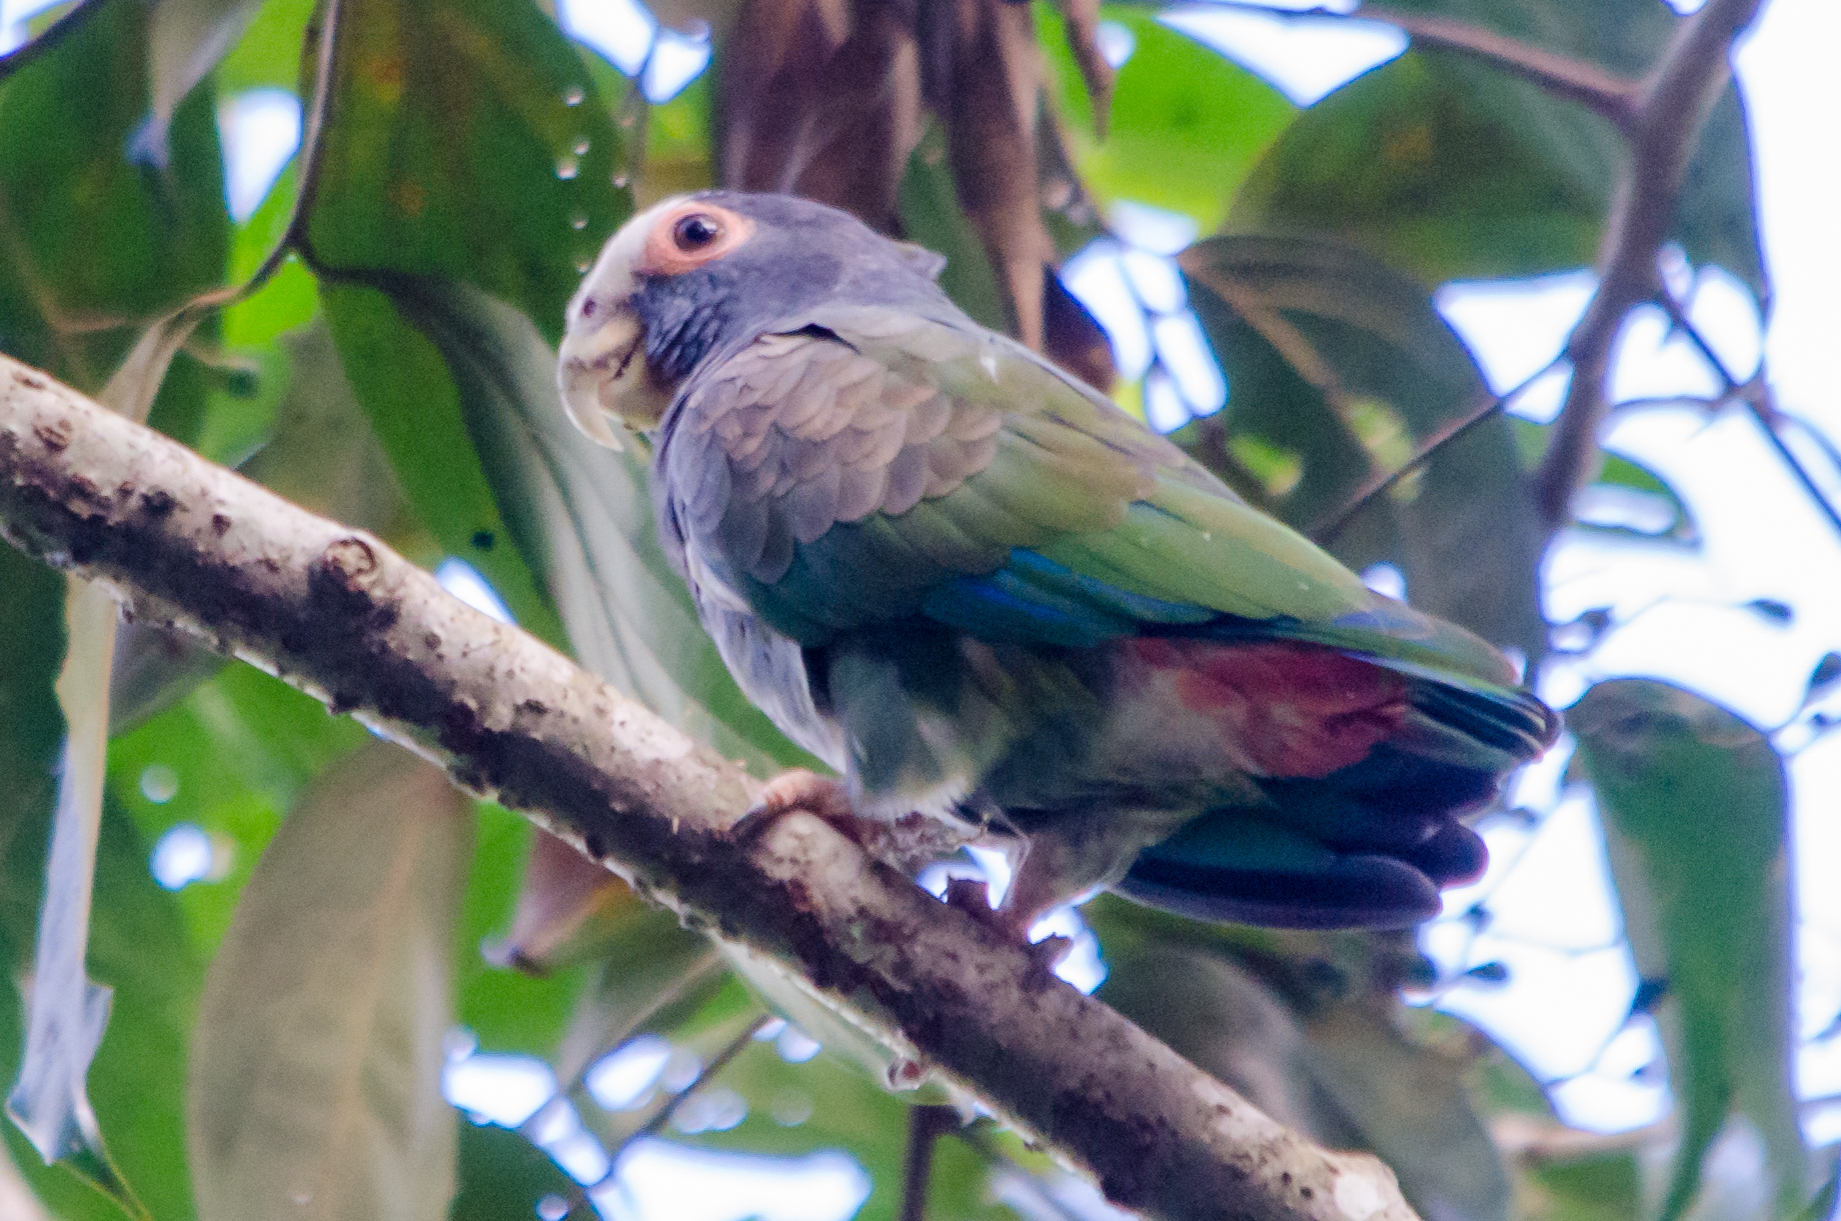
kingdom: Animalia
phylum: Chordata
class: Aves
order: Psittaciformes
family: Psittacidae
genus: Pionus
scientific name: Pionus senilis
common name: White-crowned parrot
